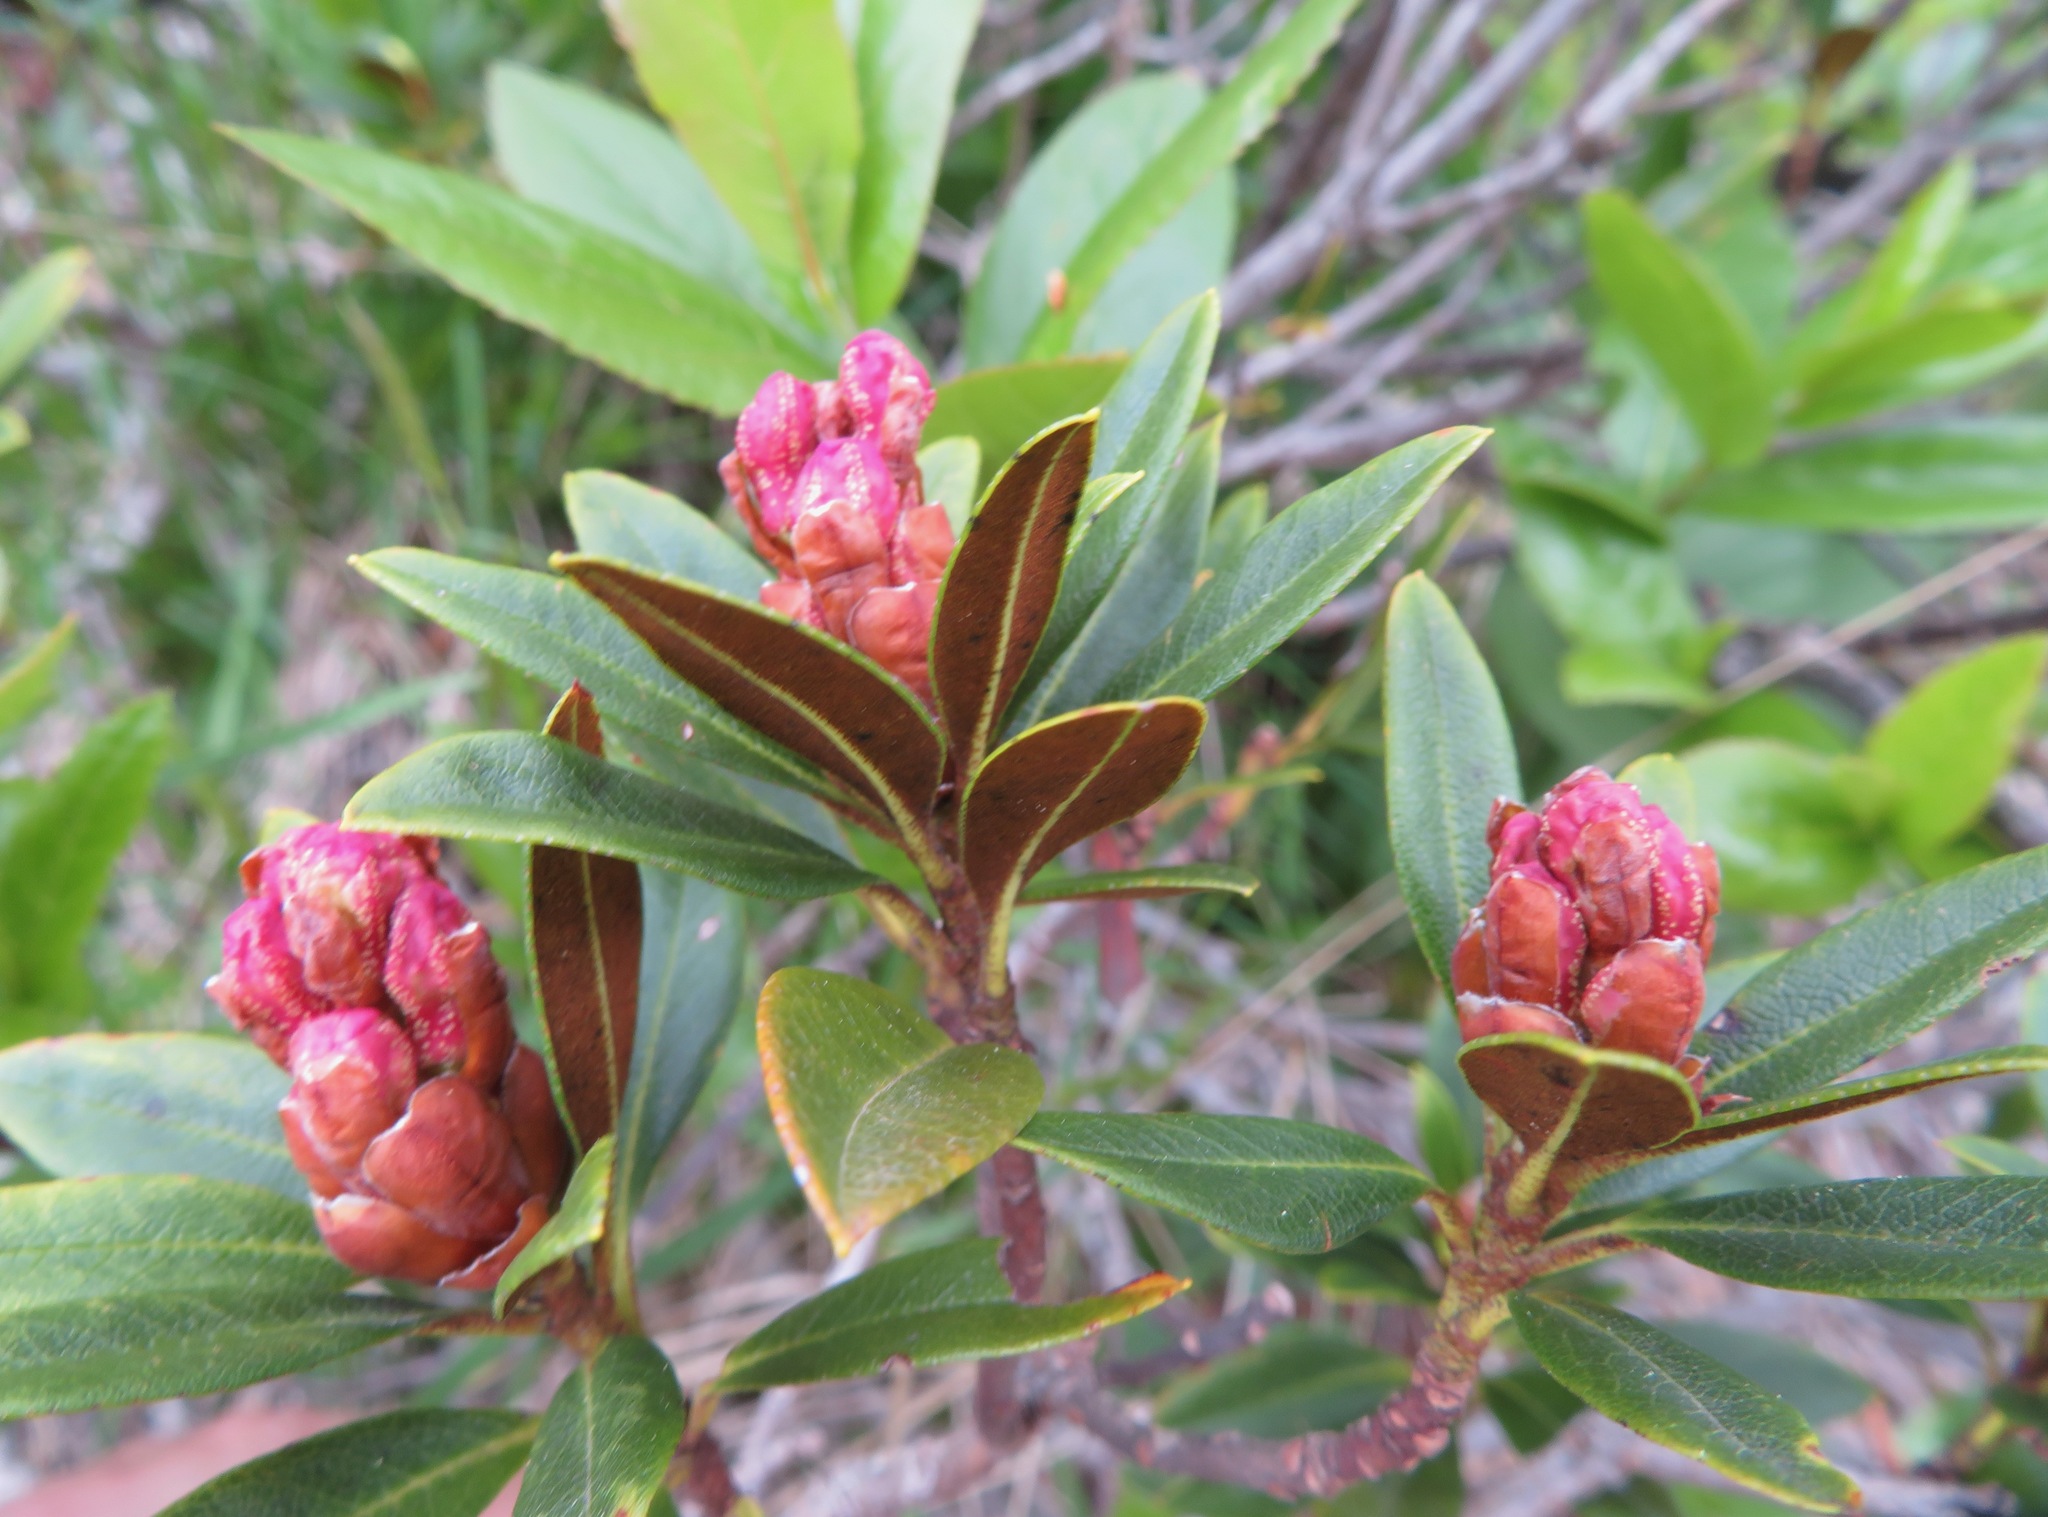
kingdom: Plantae
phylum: Tracheophyta
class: Magnoliopsida
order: Ericales
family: Ericaceae
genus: Rhododendron
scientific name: Rhododendron ferrugineum
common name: Alpenrose
